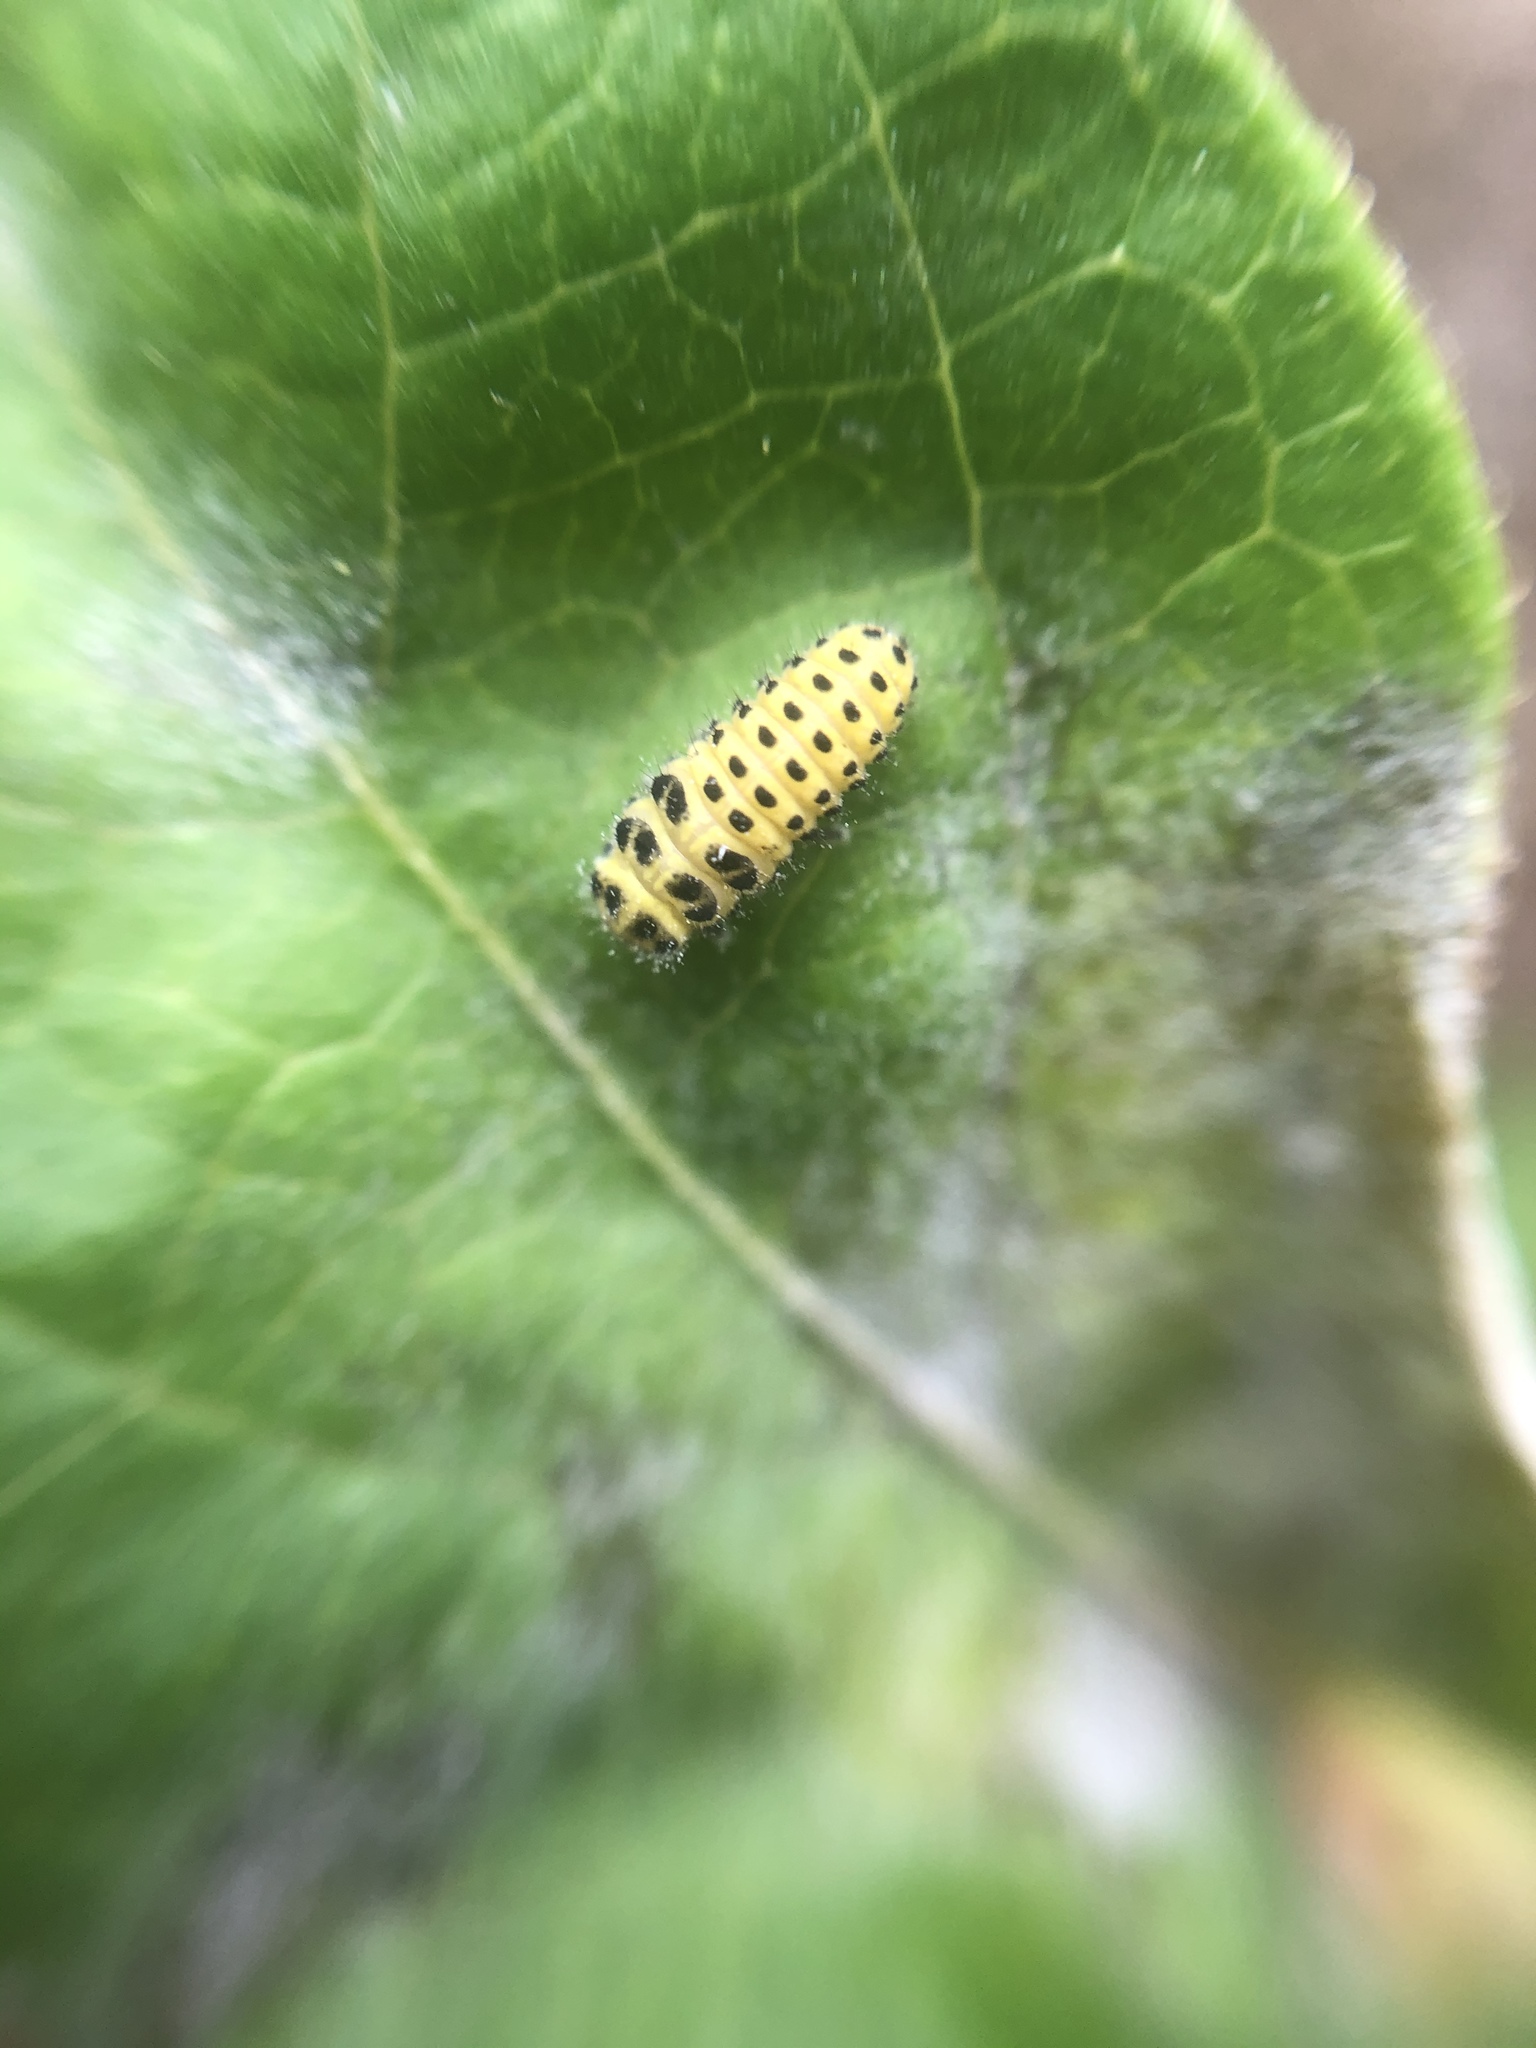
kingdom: Animalia
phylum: Arthropoda
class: Insecta
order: Coleoptera
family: Coccinellidae
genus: Psyllobora
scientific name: Psyllobora vigintiduopunctata
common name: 22-spot ladybird
